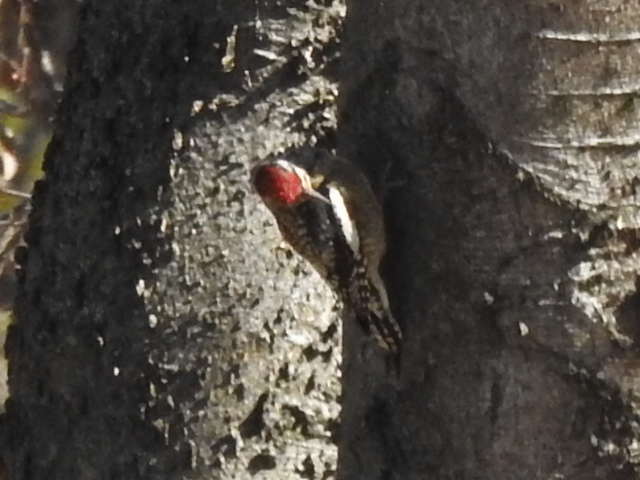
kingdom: Animalia
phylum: Chordata
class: Aves
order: Piciformes
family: Picidae
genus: Sphyrapicus
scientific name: Sphyrapicus varius
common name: Yellow-bellied sapsucker
